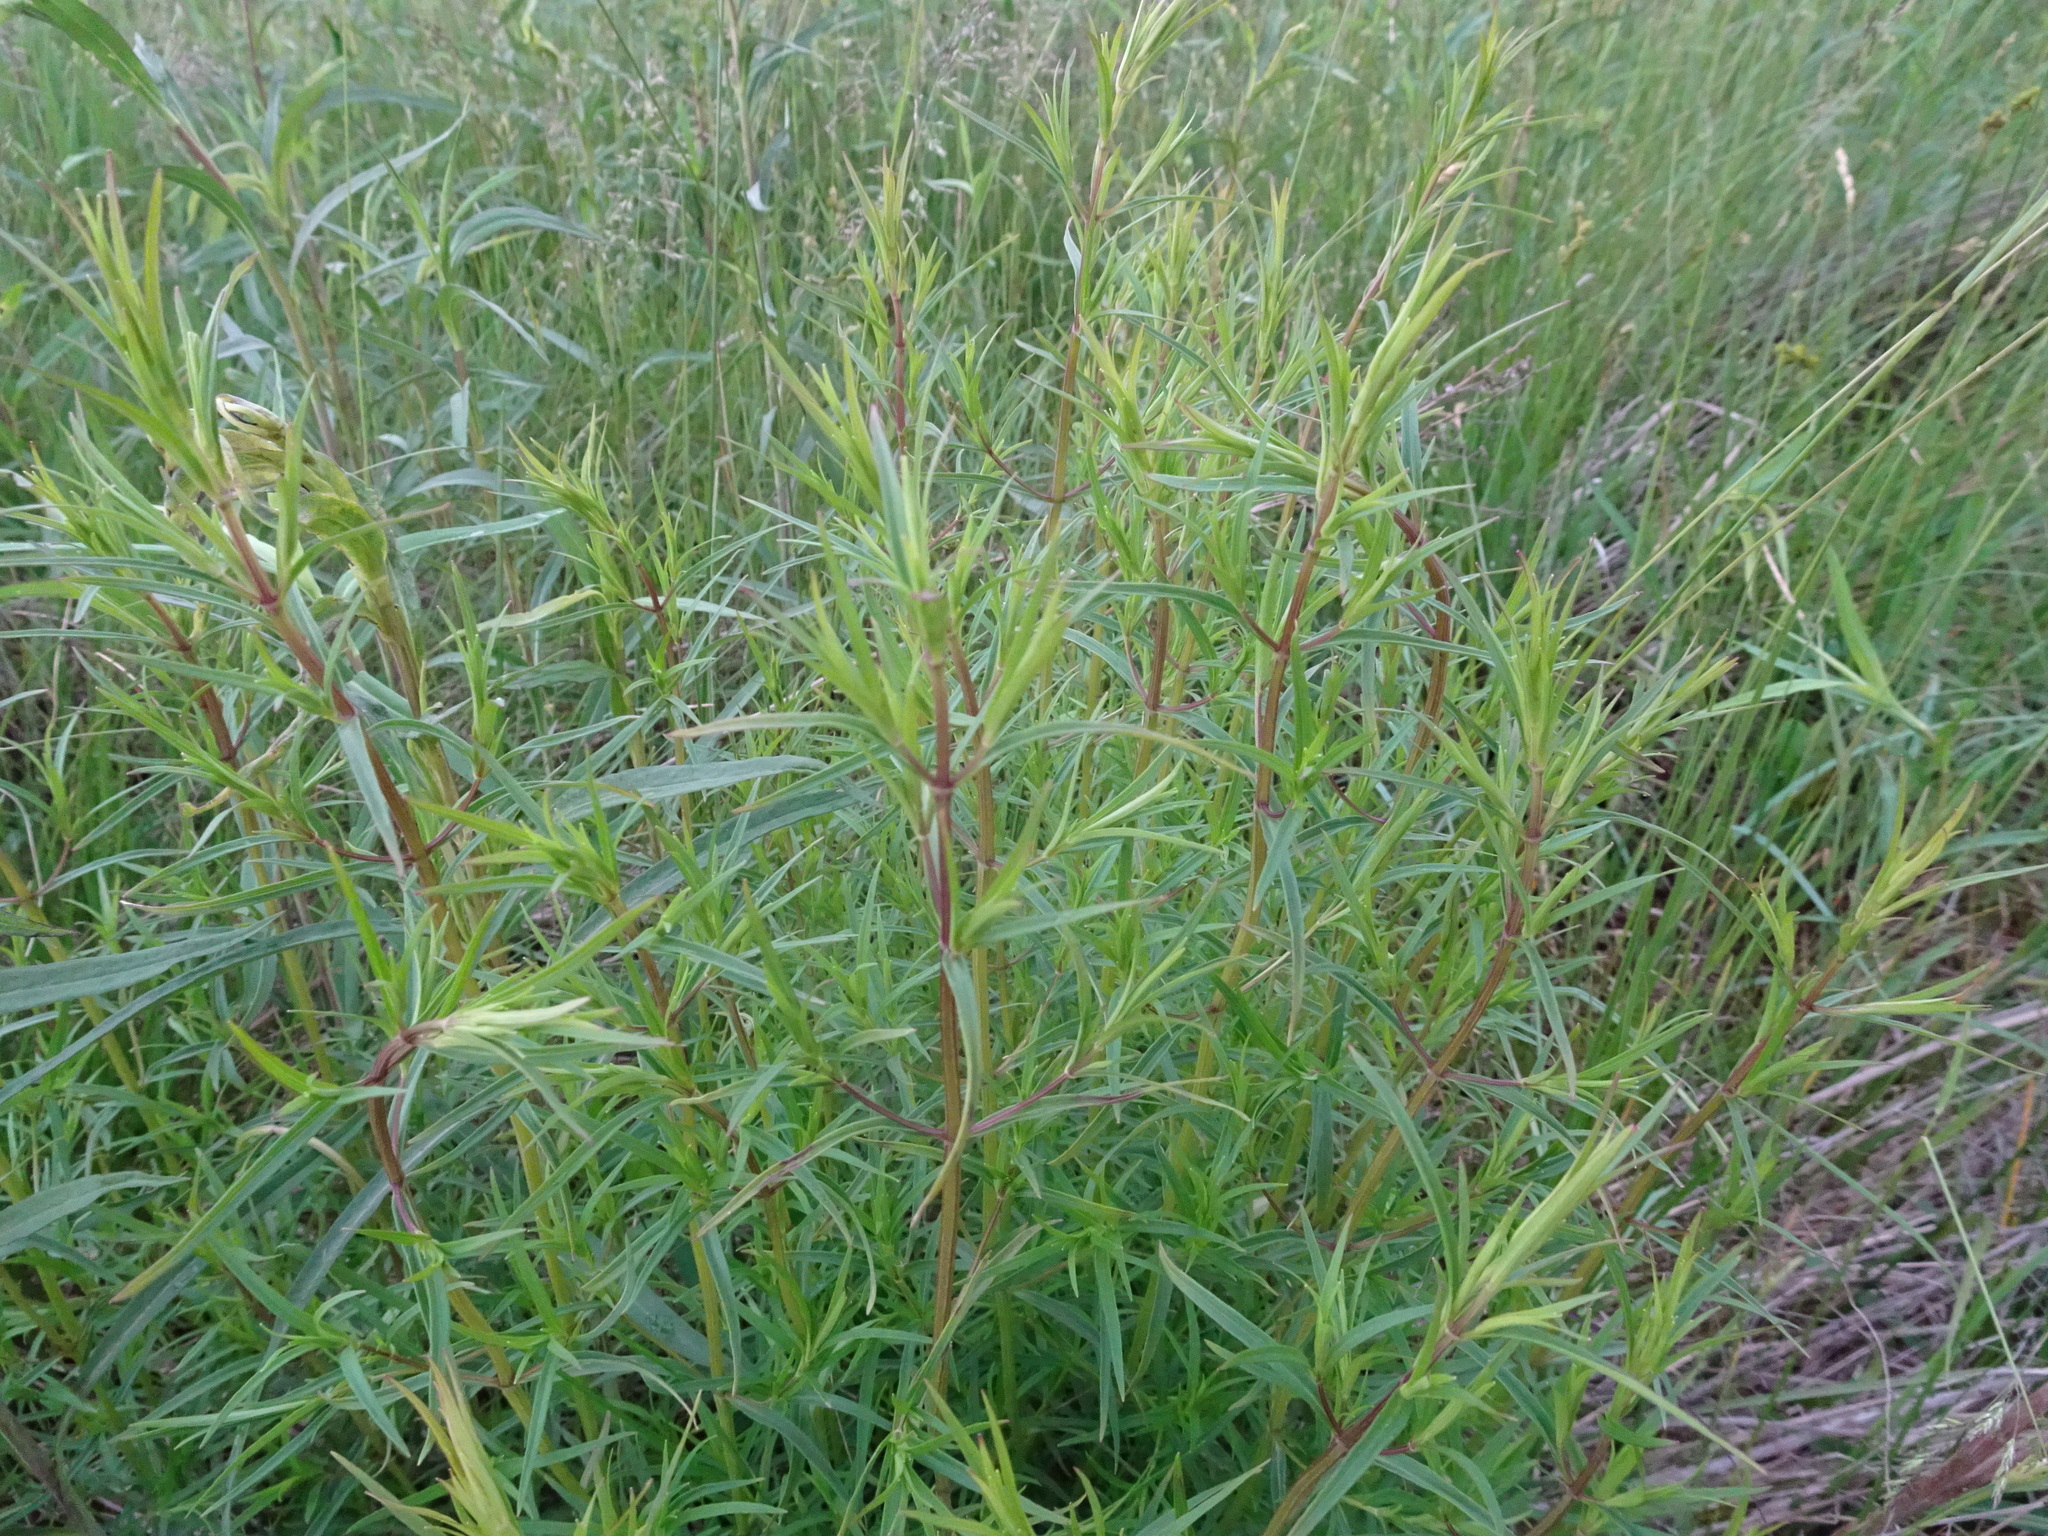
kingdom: Plantae
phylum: Tracheophyta
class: Magnoliopsida
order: Lamiales
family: Lamiaceae
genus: Pycnanthemum
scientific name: Pycnanthemum tenuifolium
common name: Narrow-leaf mountain-mint
